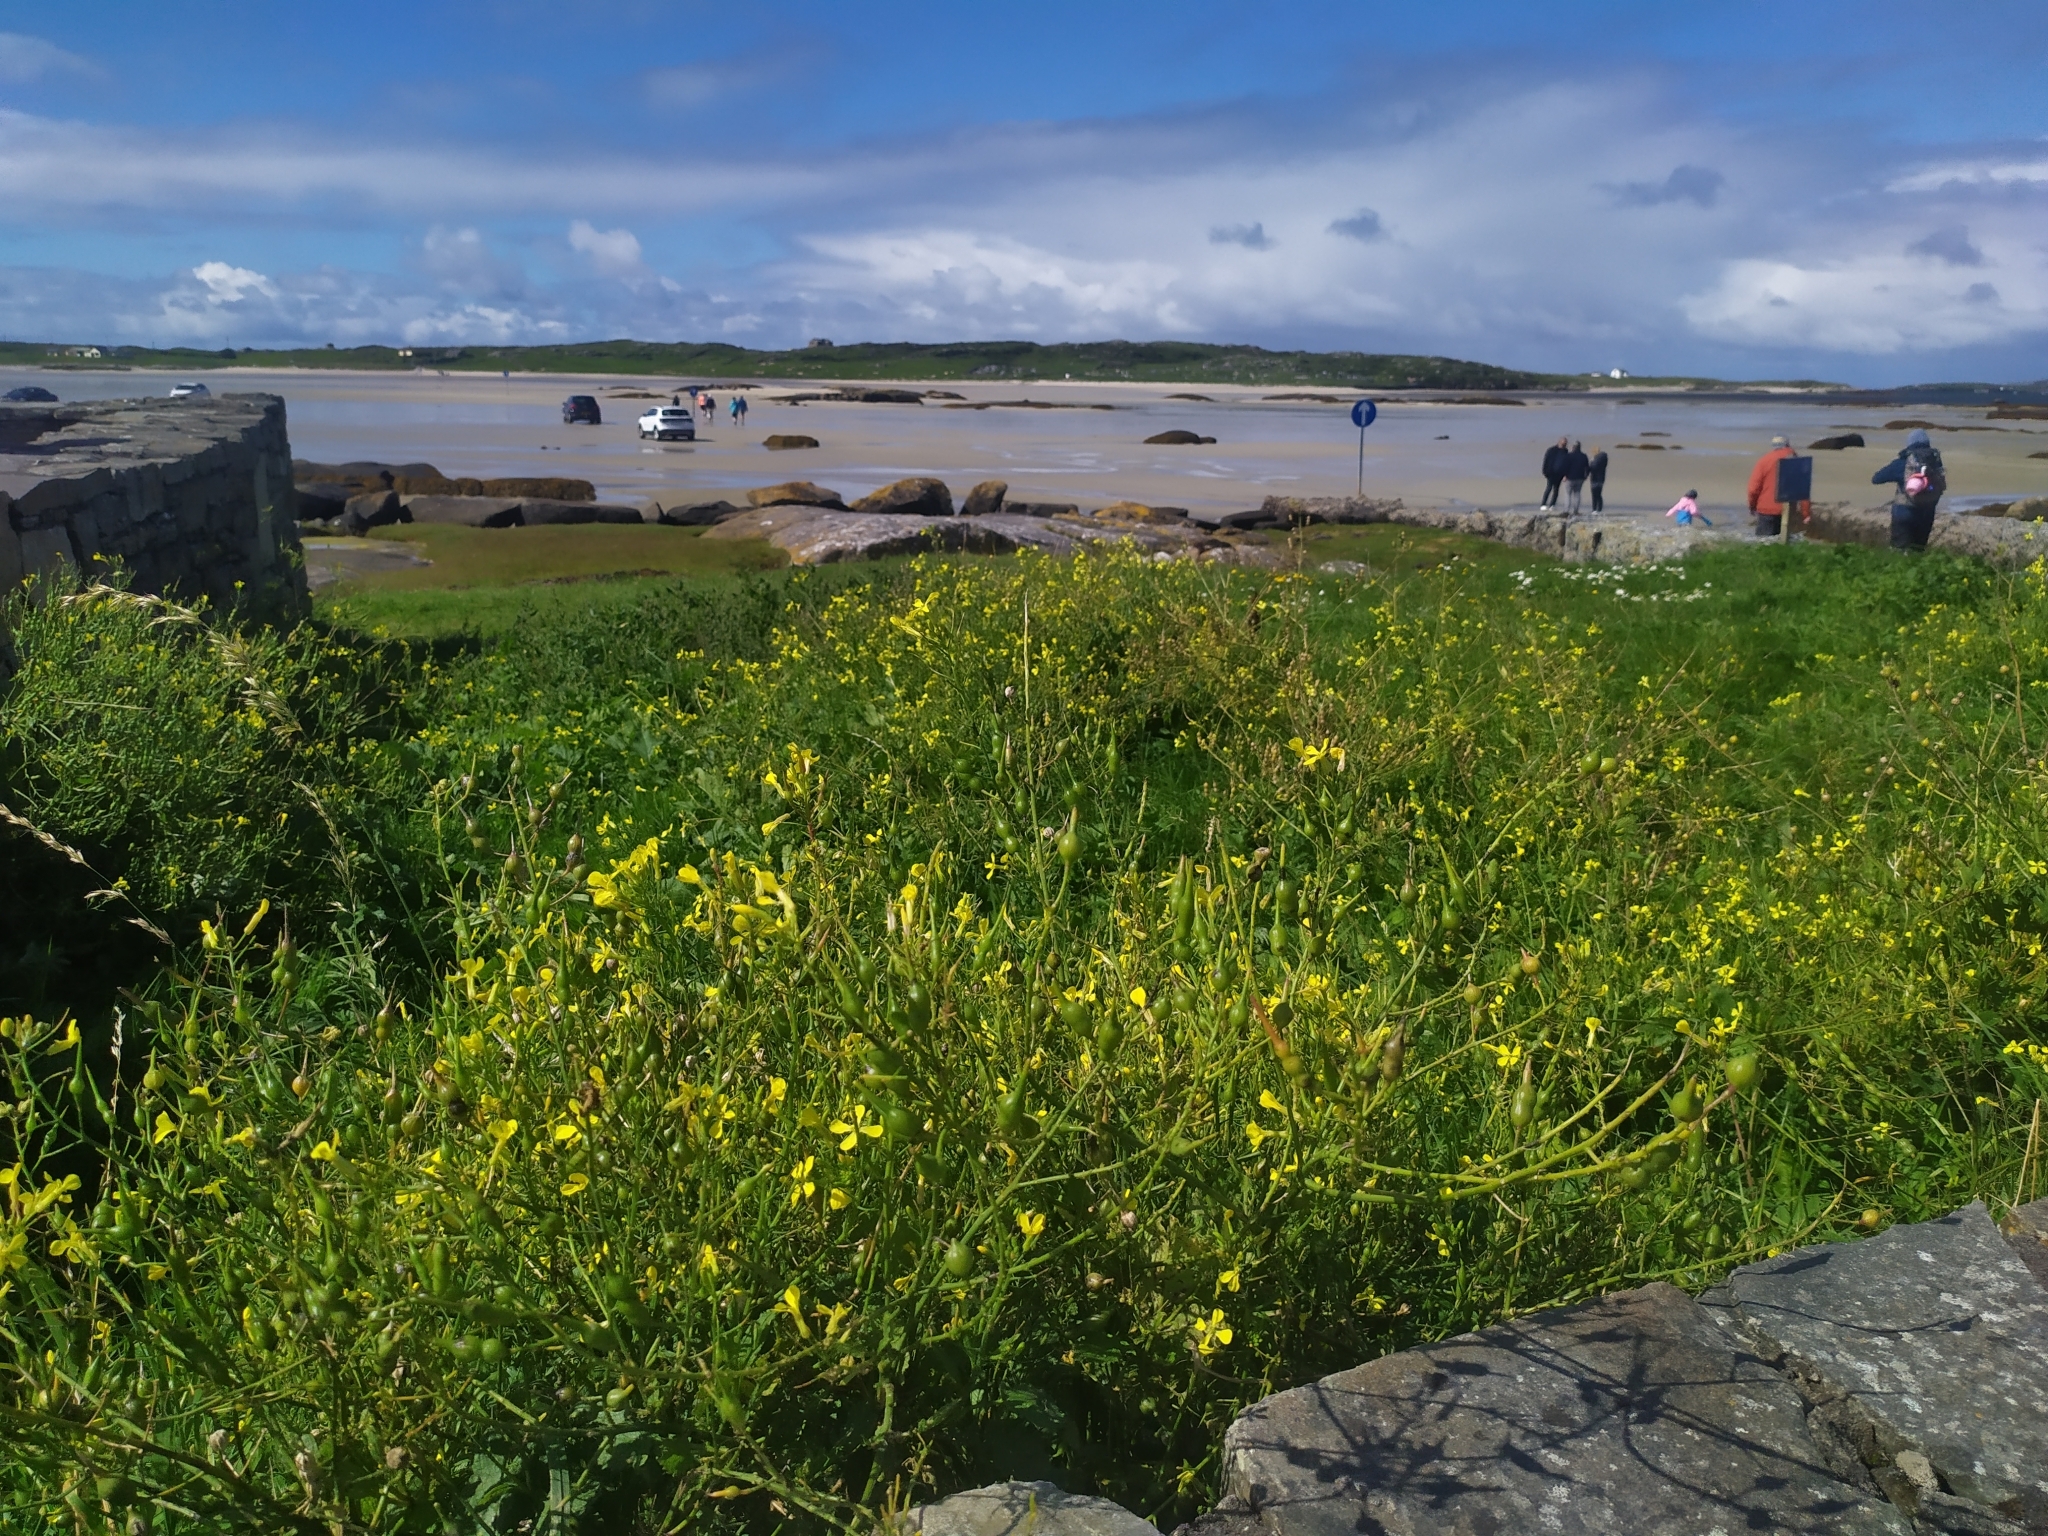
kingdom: Plantae
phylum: Tracheophyta
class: Magnoliopsida
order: Brassicales
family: Brassicaceae
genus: Raphanus
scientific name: Raphanus raphanistrum
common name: Wild radish
